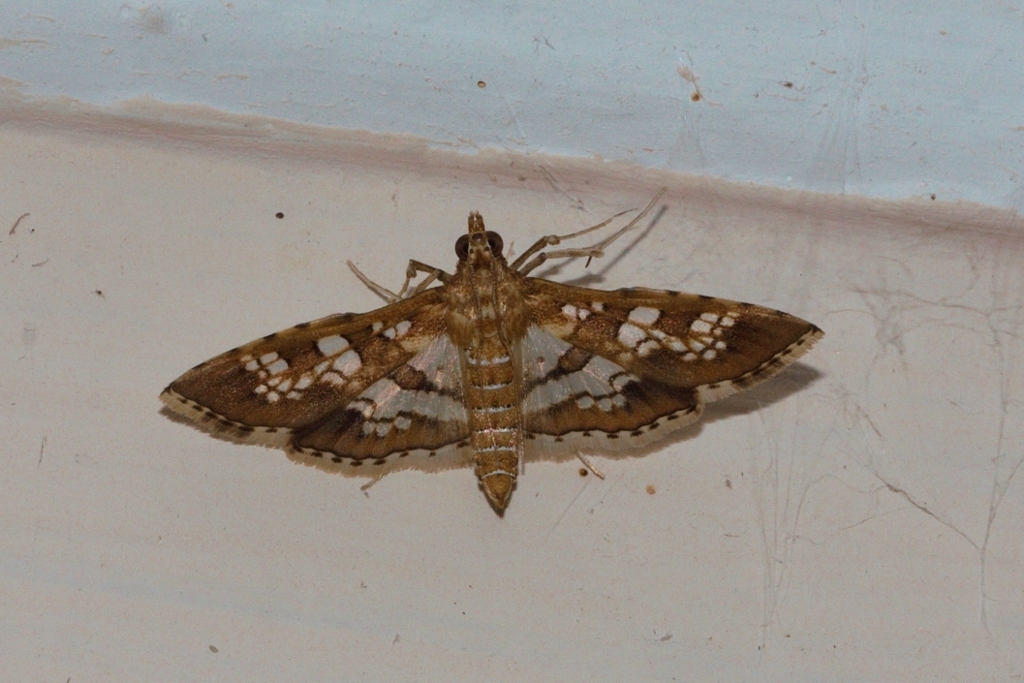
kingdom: Animalia
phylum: Arthropoda
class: Insecta
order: Lepidoptera
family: Crambidae
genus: Sameodes
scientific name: Sameodes cancellalis
